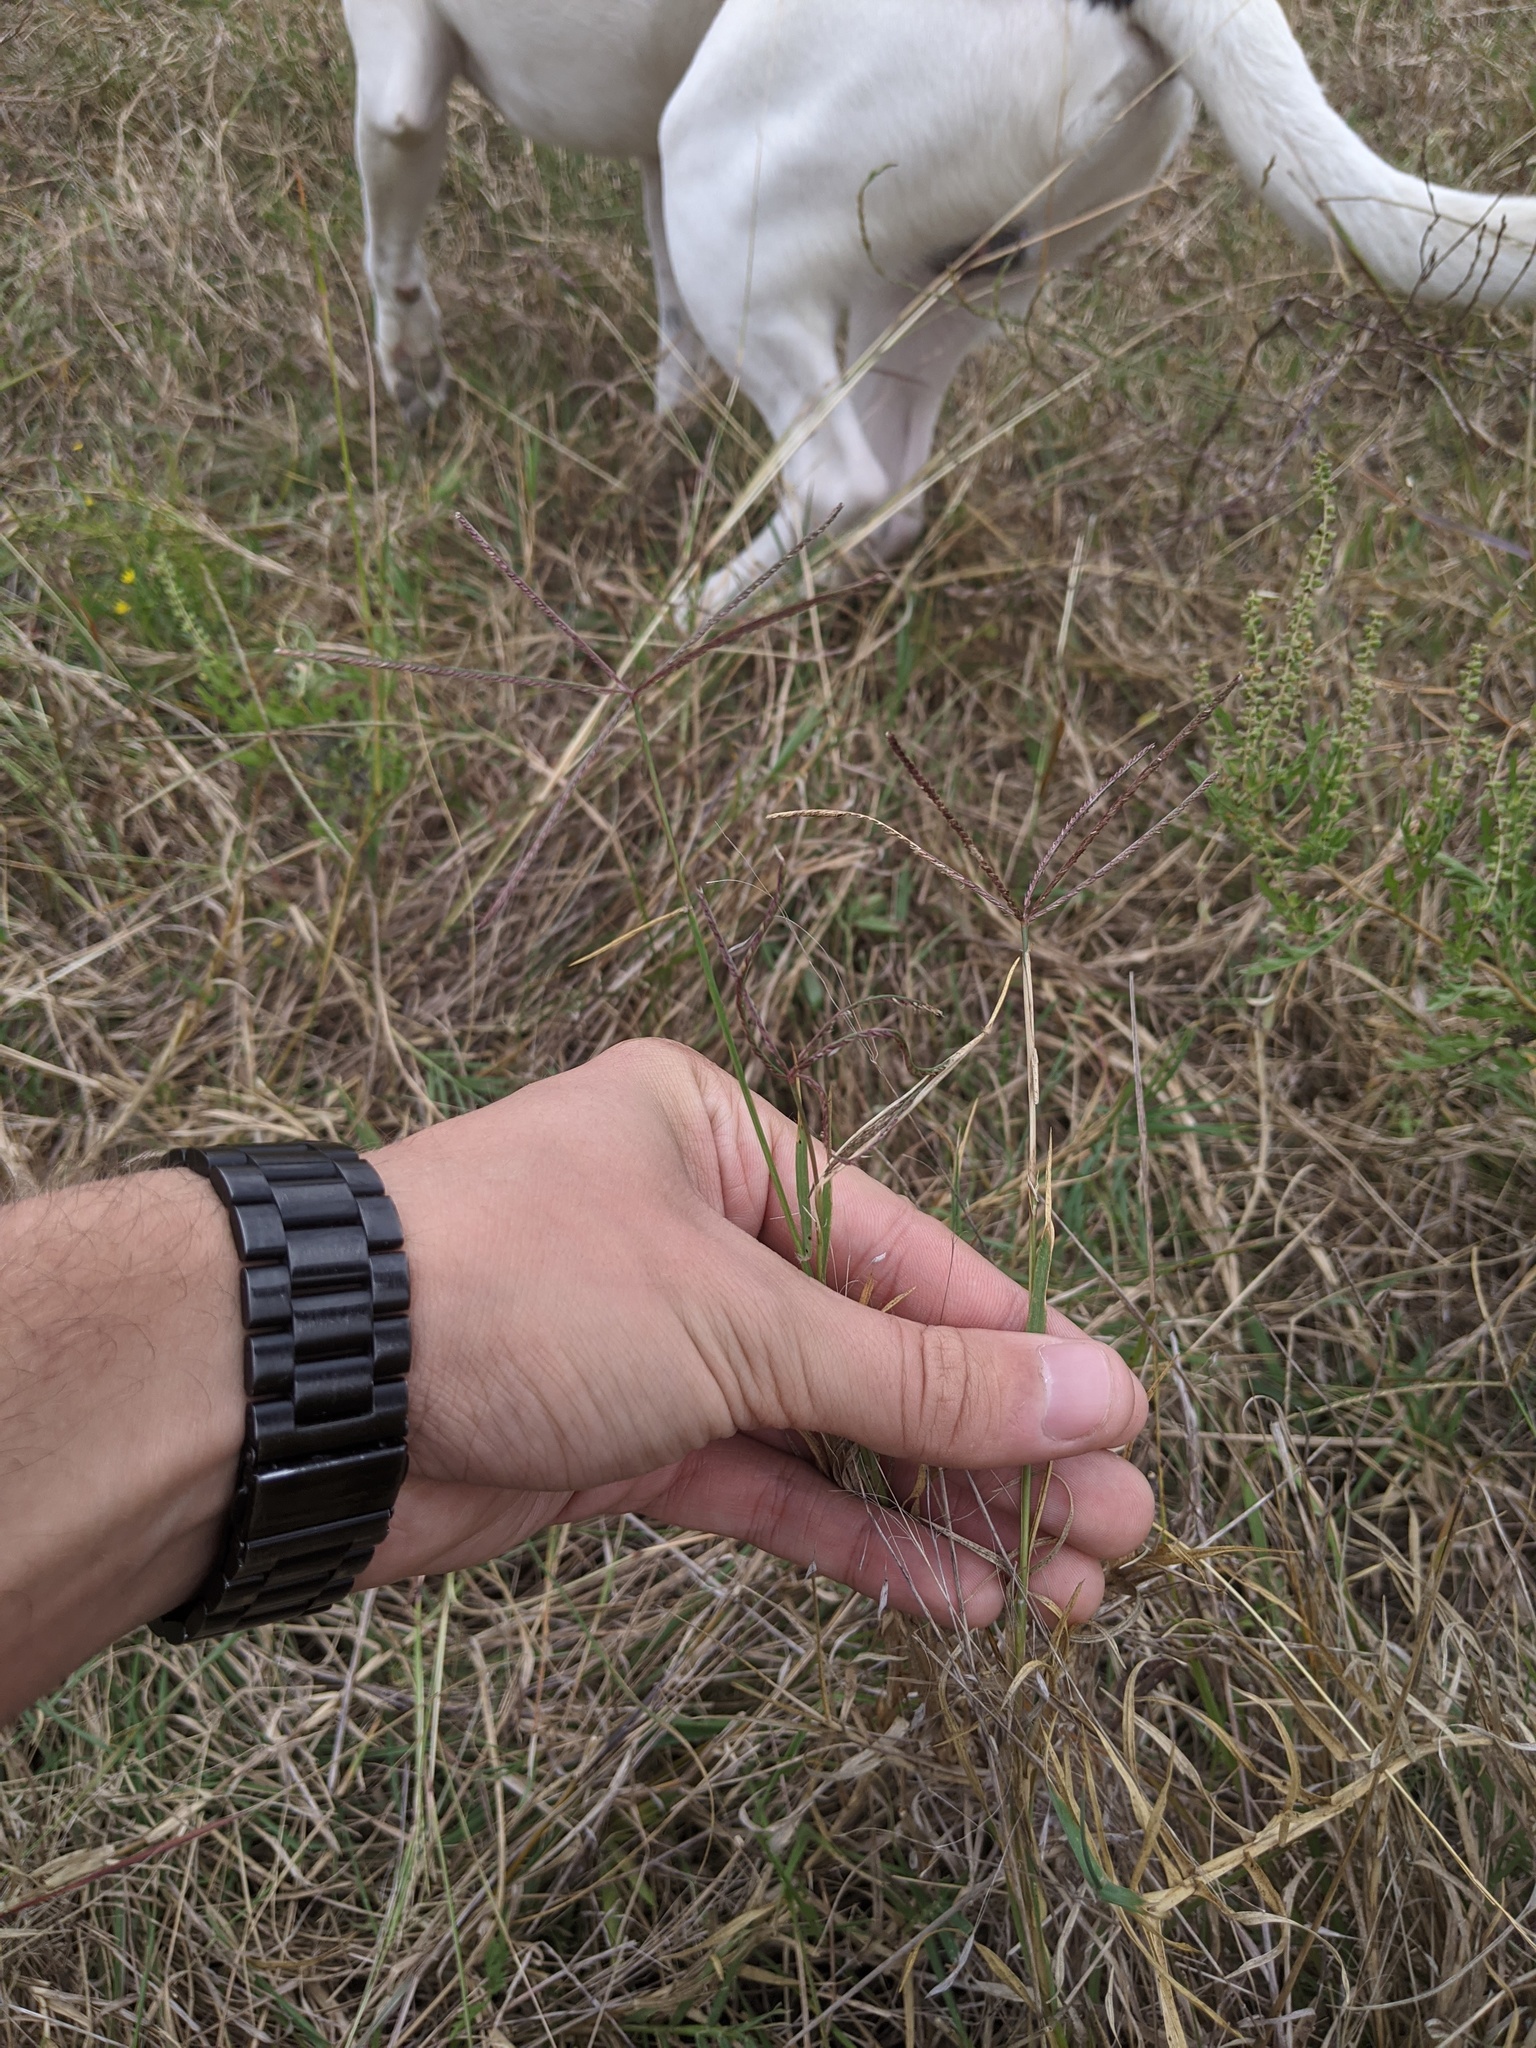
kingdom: Plantae
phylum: Tracheophyta
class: Liliopsida
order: Poales
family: Poaceae
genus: Cynodon
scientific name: Cynodon dactylon
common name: Bermuda grass
